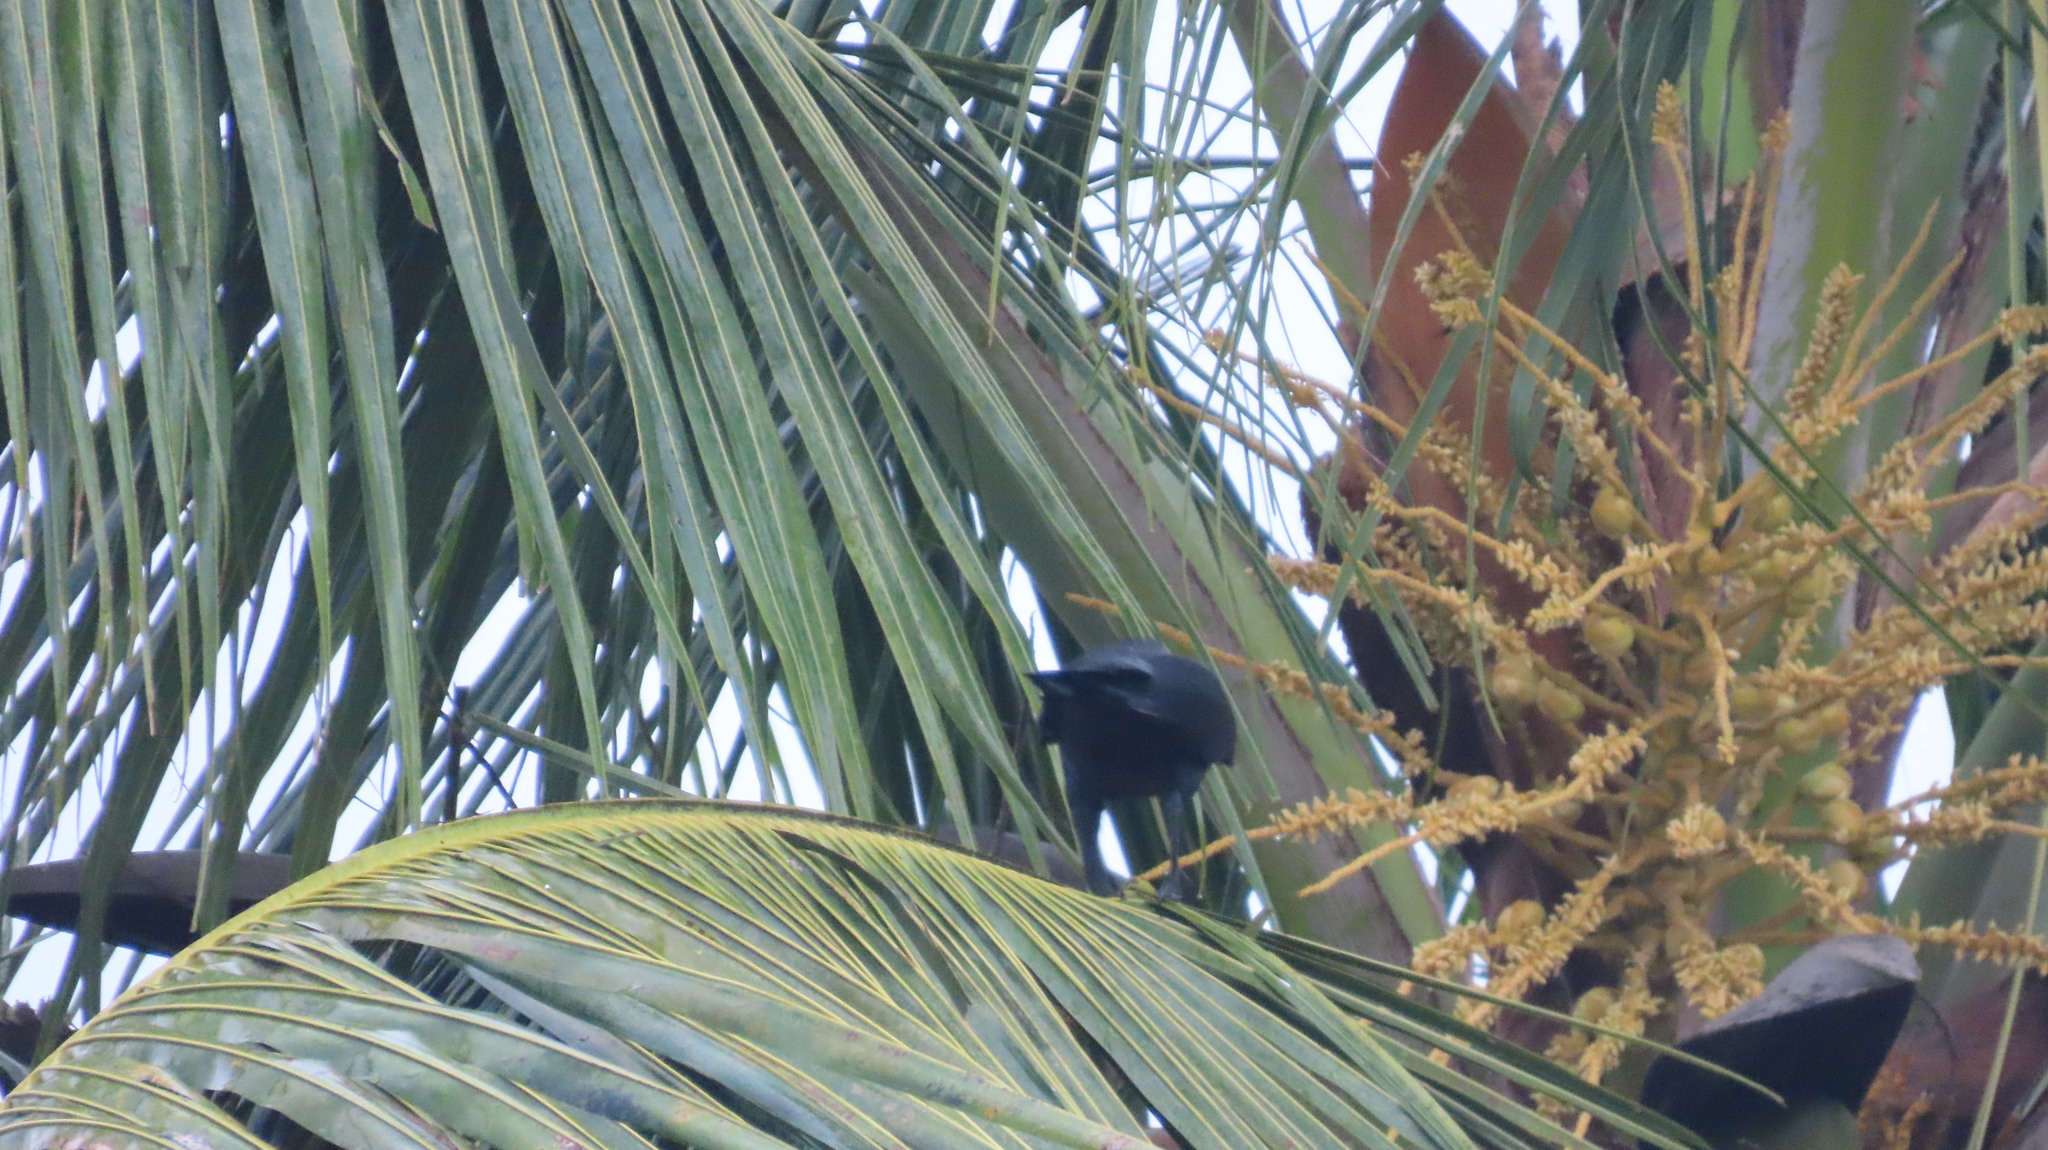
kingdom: Animalia
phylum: Chordata
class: Aves
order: Passeriformes
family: Corvidae
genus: Corvus
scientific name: Corvus splendens
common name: House crow
